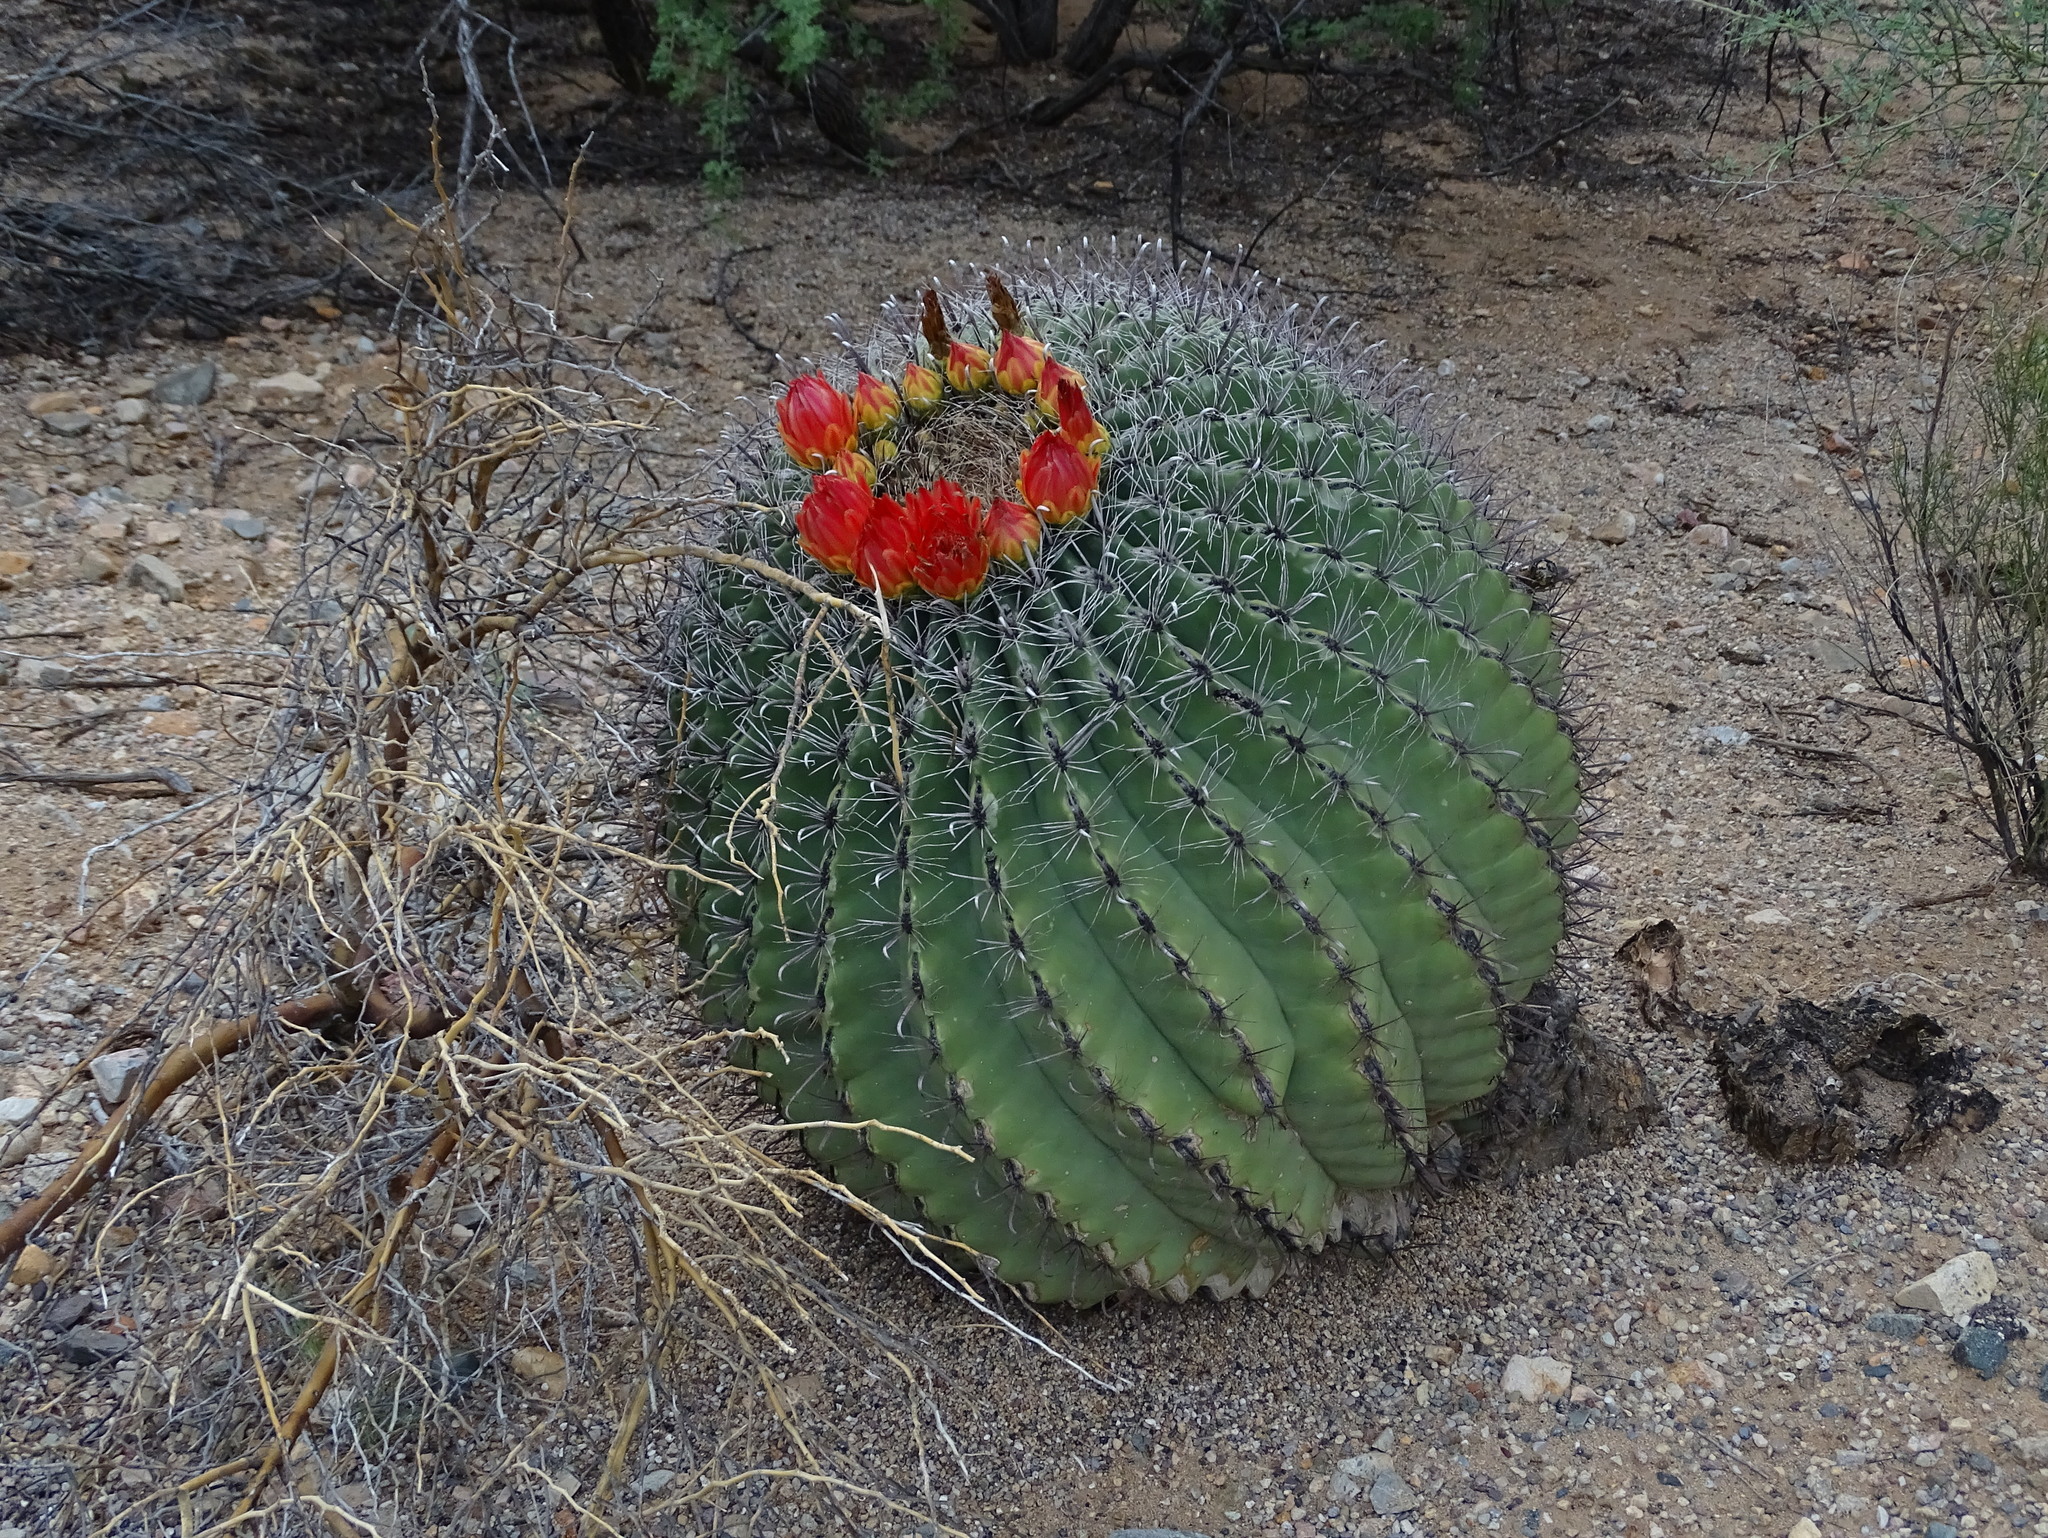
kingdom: Plantae
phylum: Tracheophyta
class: Magnoliopsida
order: Caryophyllales
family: Cactaceae
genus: Ferocactus
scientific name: Ferocactus wislizeni
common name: Candy barrel cactus
